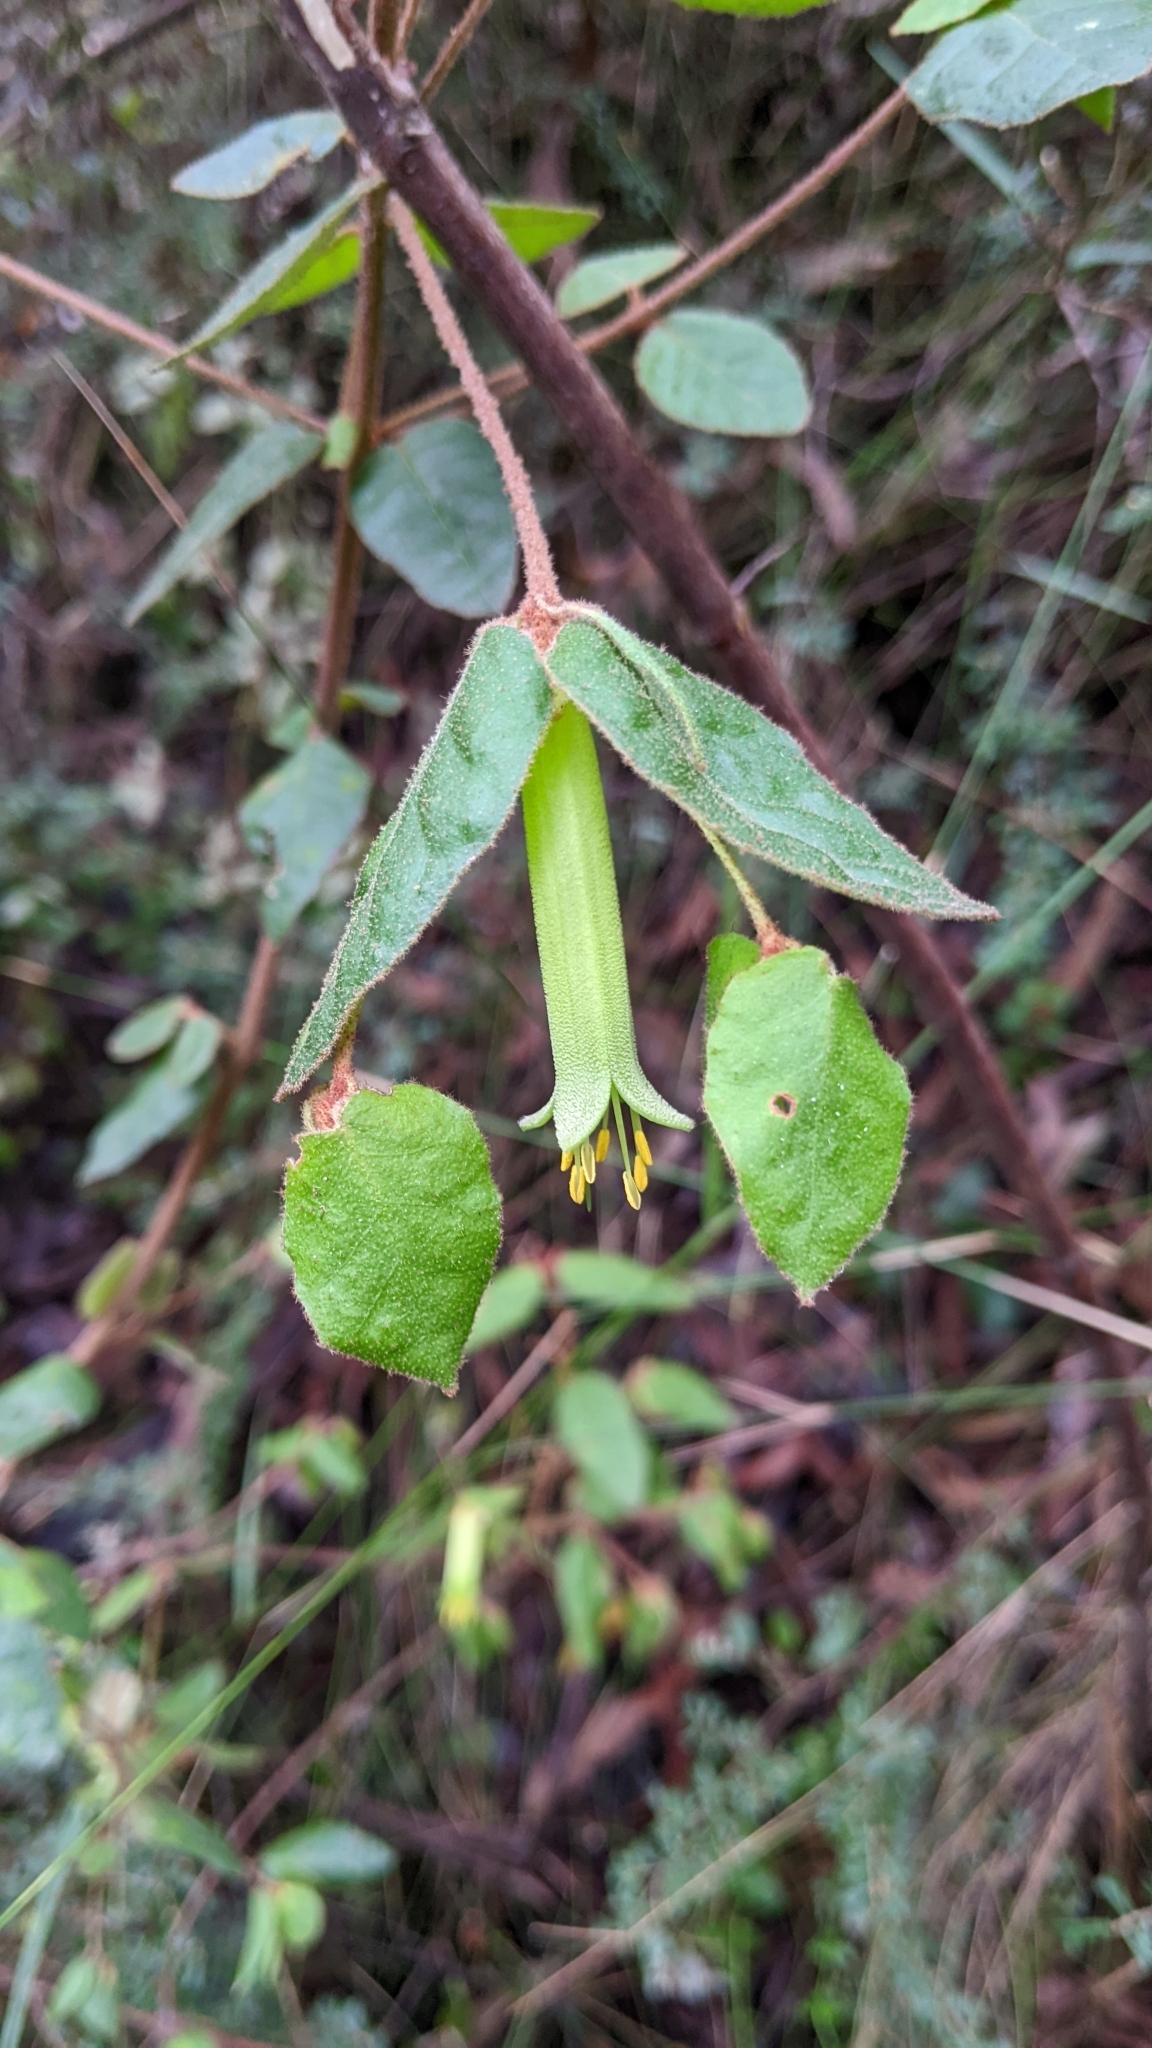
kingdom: Plantae
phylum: Tracheophyta
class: Magnoliopsida
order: Sapindales
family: Rutaceae
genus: Correa
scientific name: Correa reflexa
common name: Common correa
